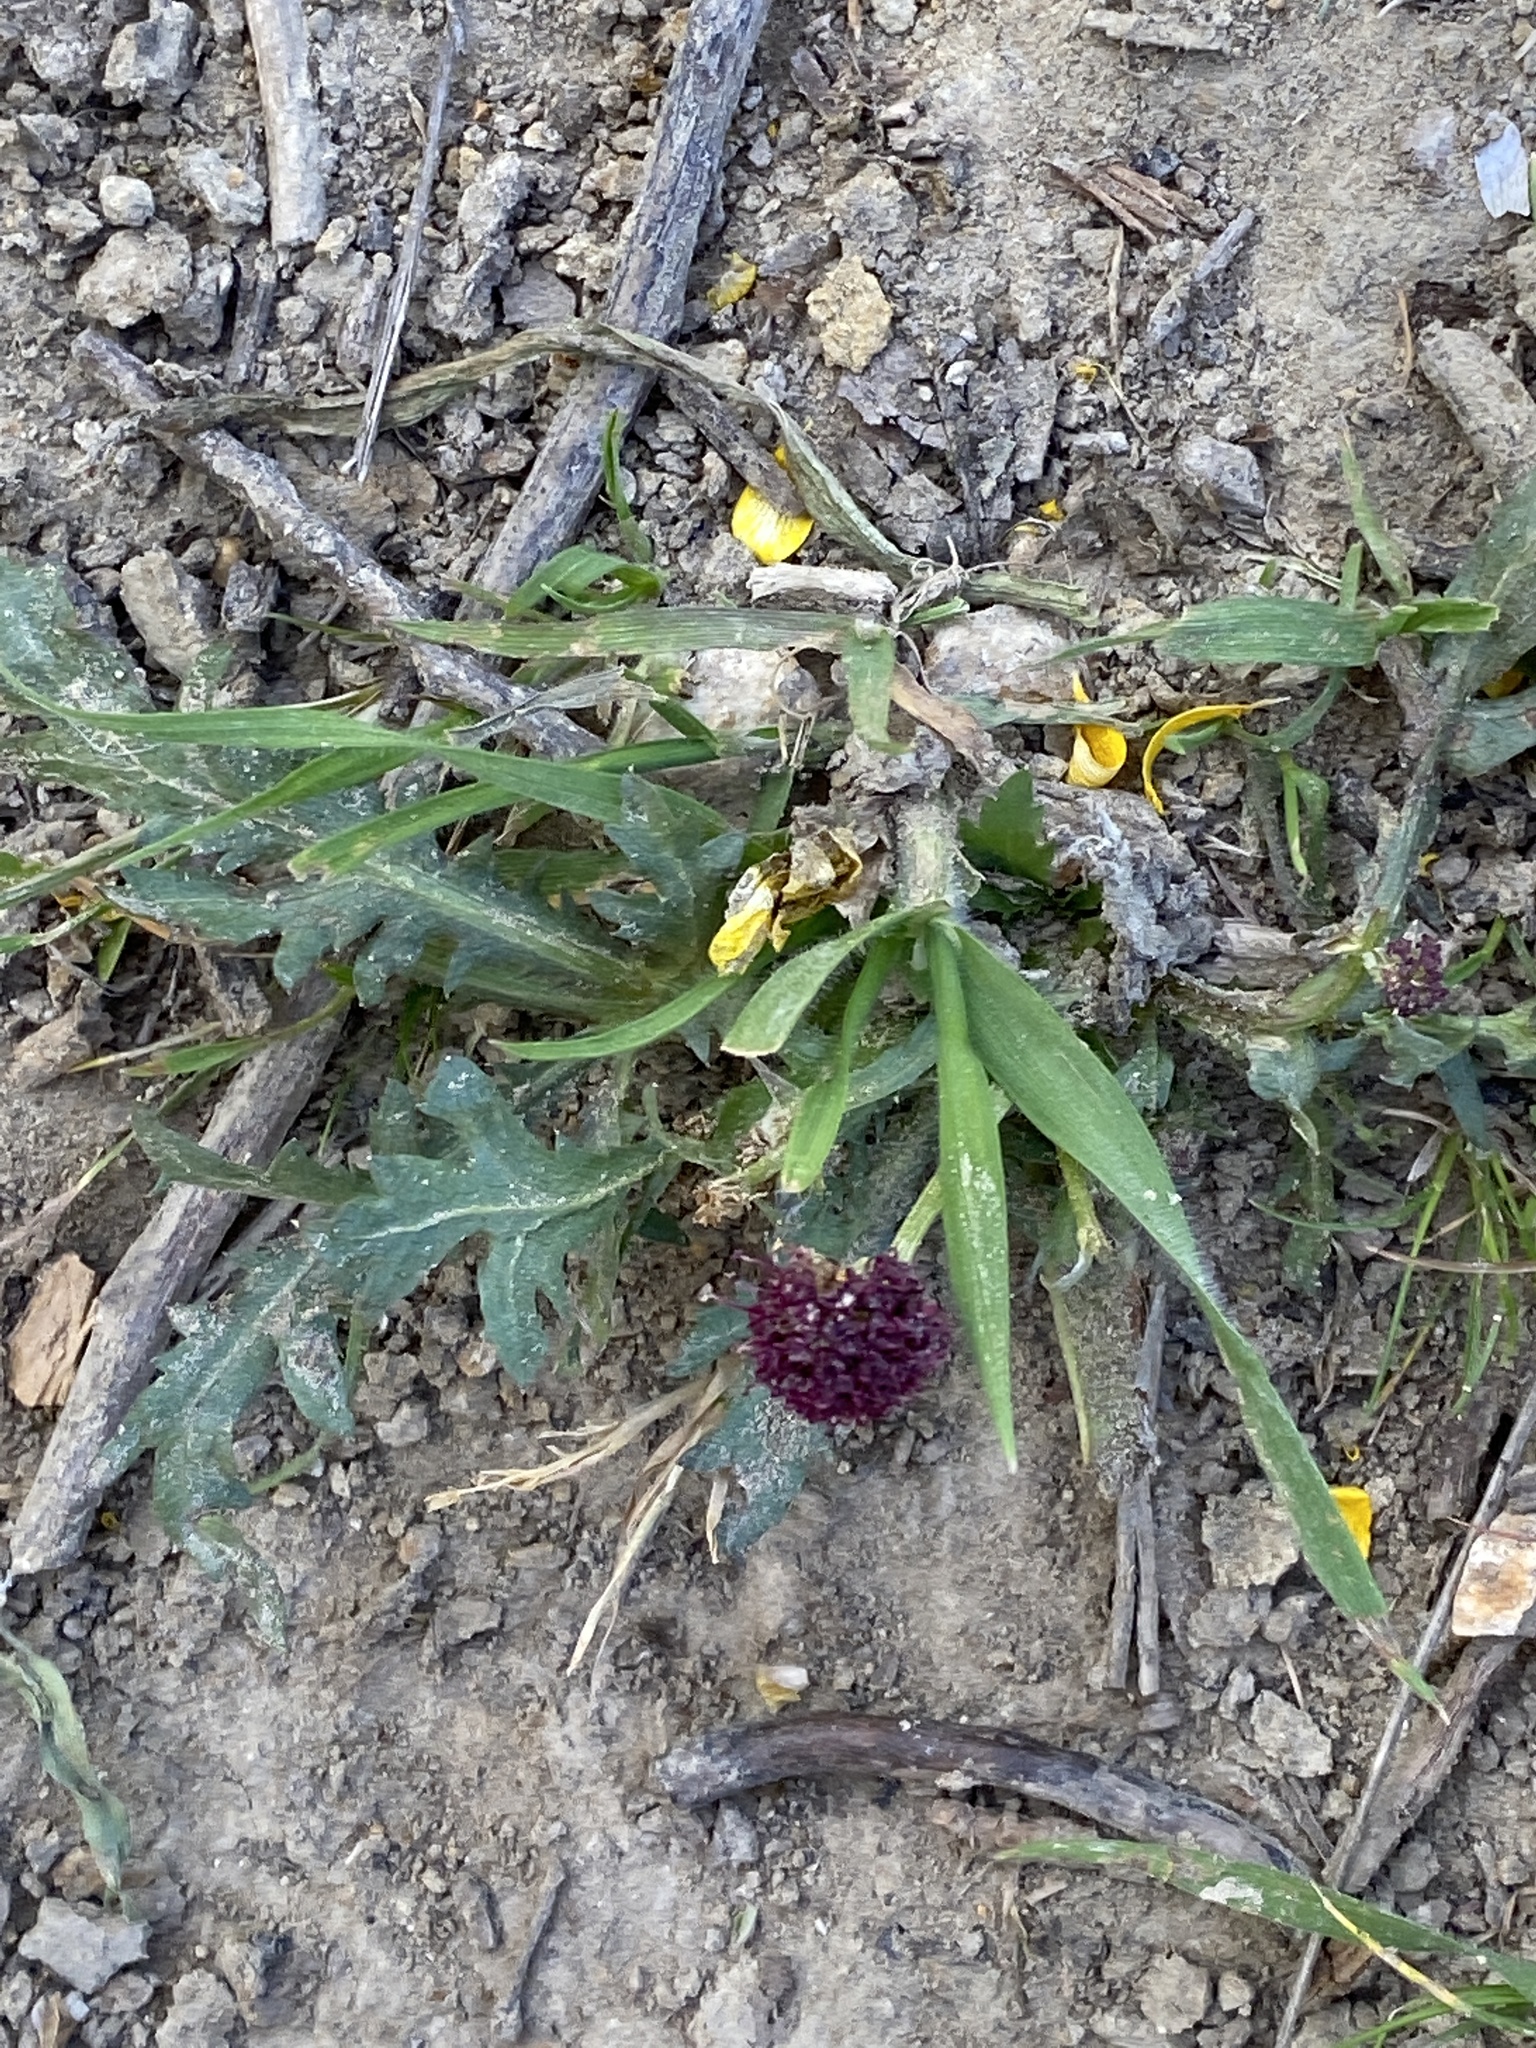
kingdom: Plantae
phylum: Tracheophyta
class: Magnoliopsida
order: Apiales
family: Apiaceae
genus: Sanicula
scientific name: Sanicula bipinnatifida
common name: Shoe-buttons
